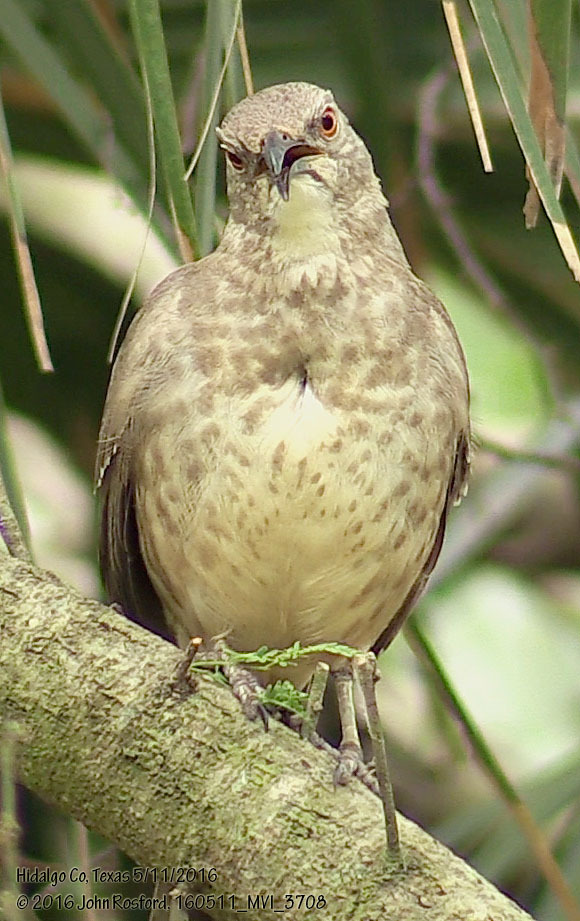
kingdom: Animalia
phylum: Chordata
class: Aves
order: Passeriformes
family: Mimidae
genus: Toxostoma
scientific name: Toxostoma curvirostre
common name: Curve-billed thrasher
